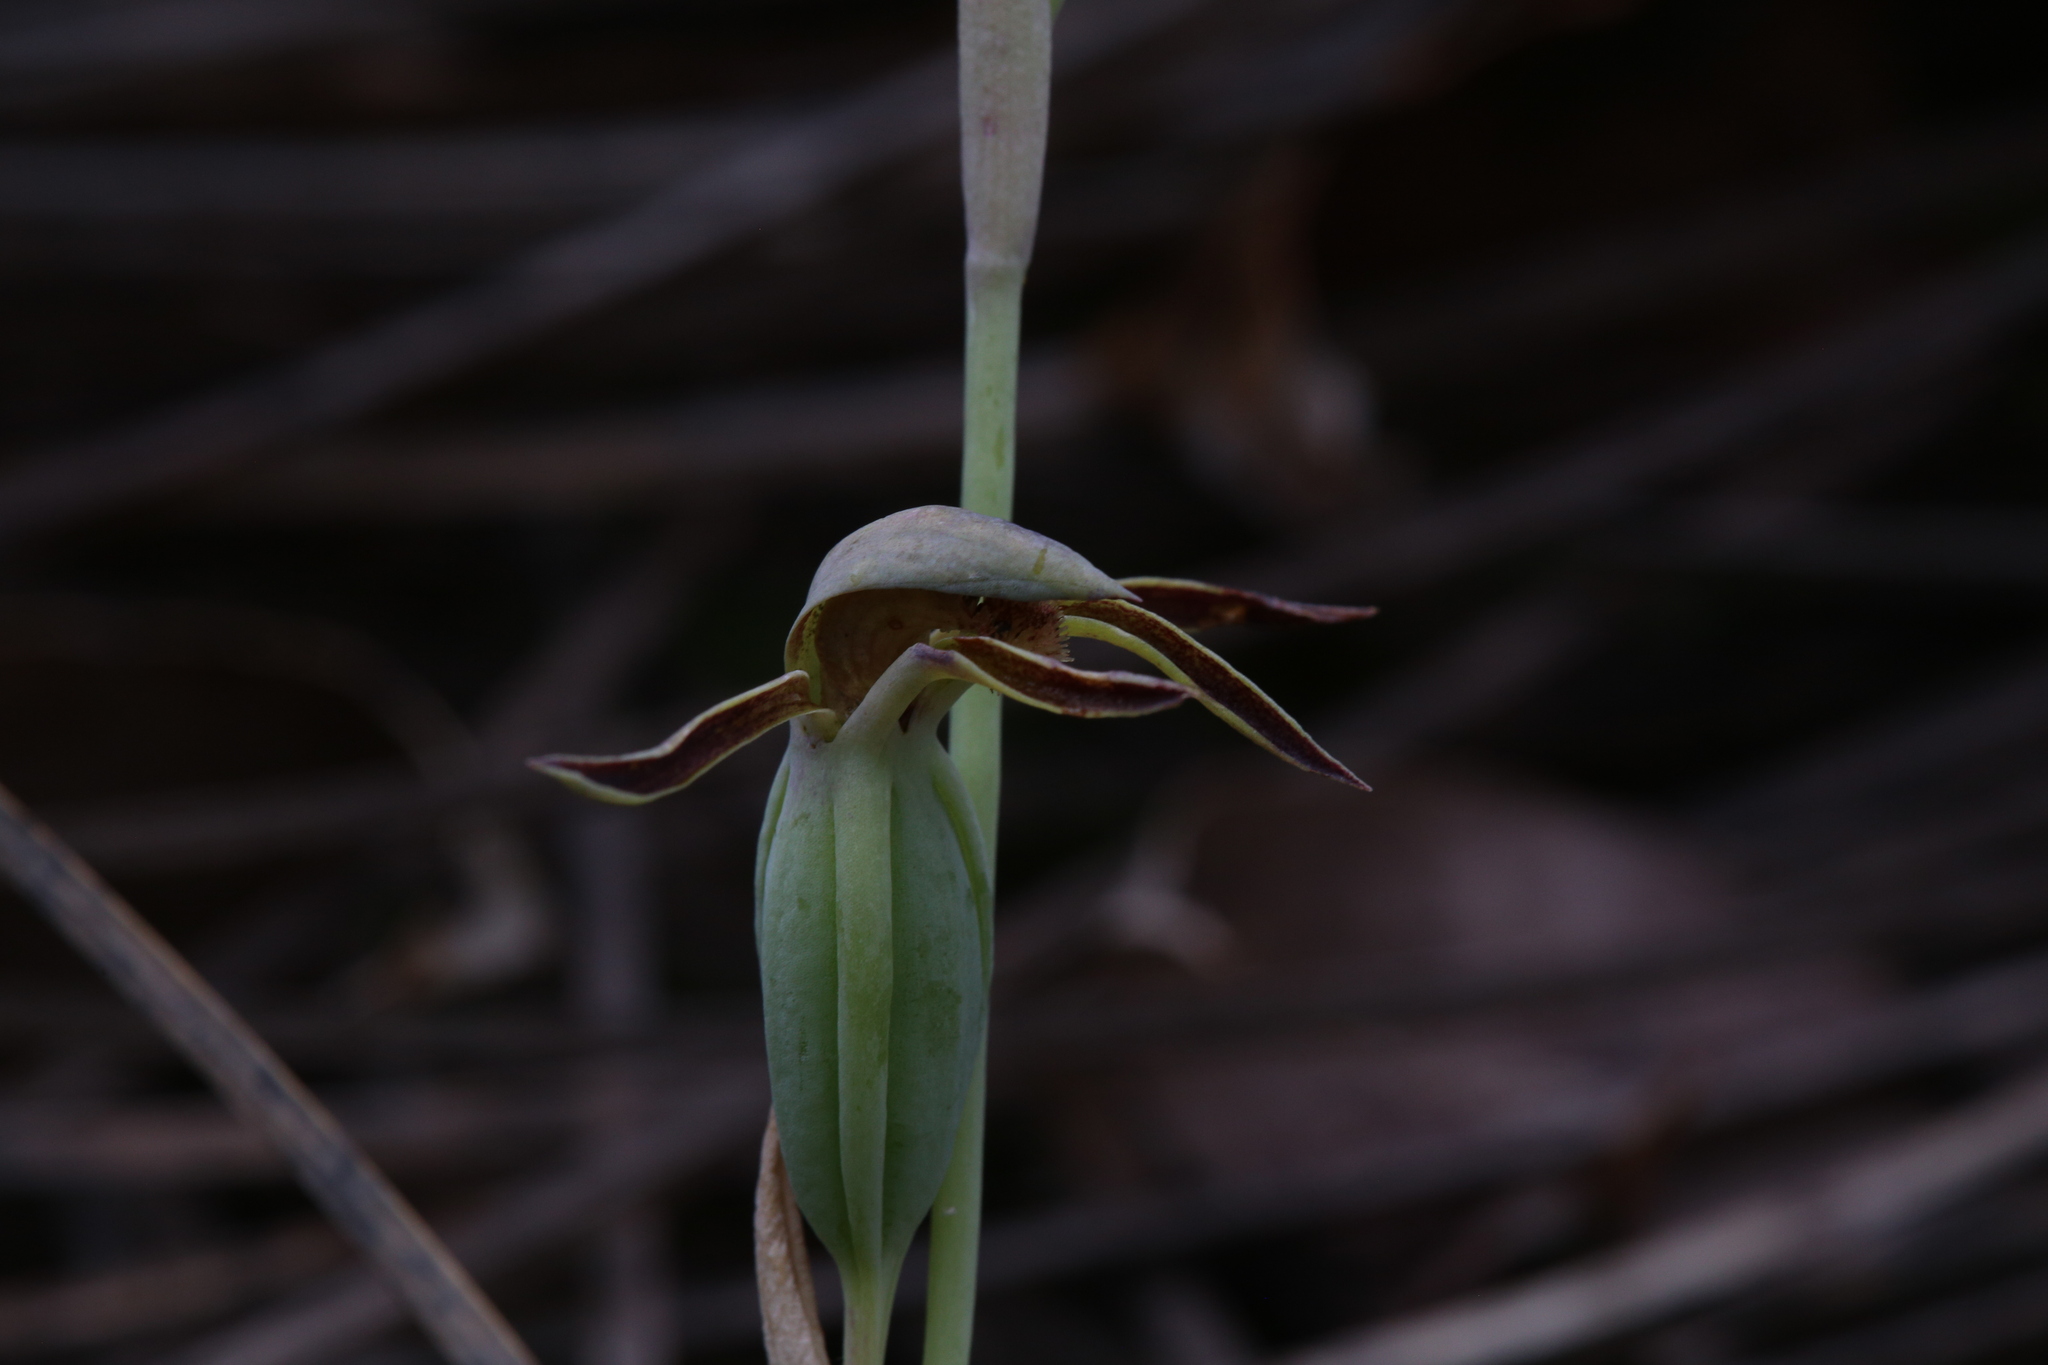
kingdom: Plantae
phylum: Tracheophyta
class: Liliopsida
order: Asparagales
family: Orchidaceae
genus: Lyperanthus
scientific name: Lyperanthus serratus
